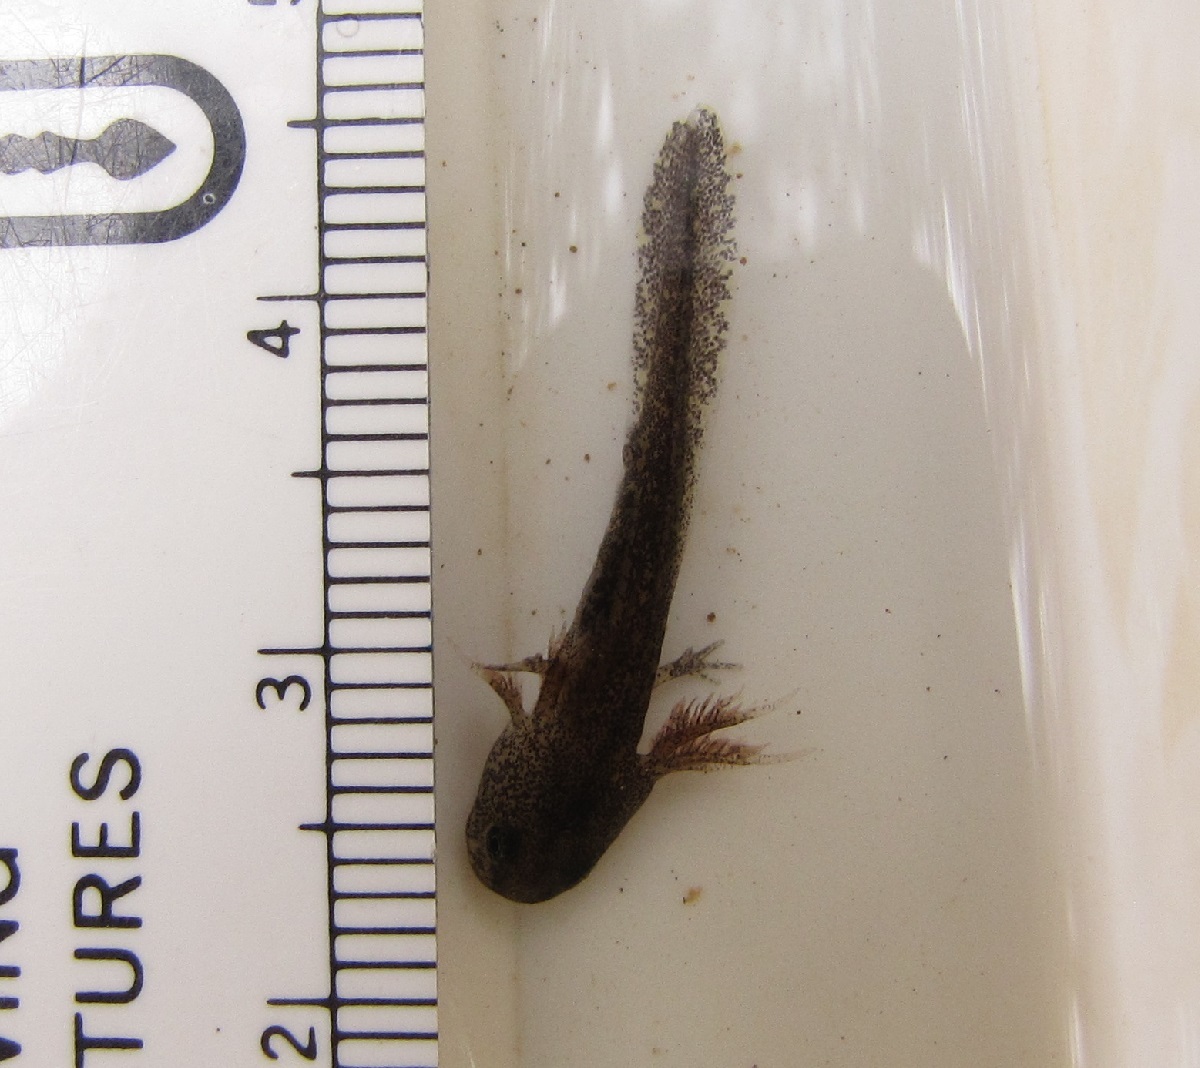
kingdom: Animalia
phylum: Chordata
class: Amphibia
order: Caudata
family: Ambystomatidae
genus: Ambystoma
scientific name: Ambystoma opacum
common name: Marbled salamander
